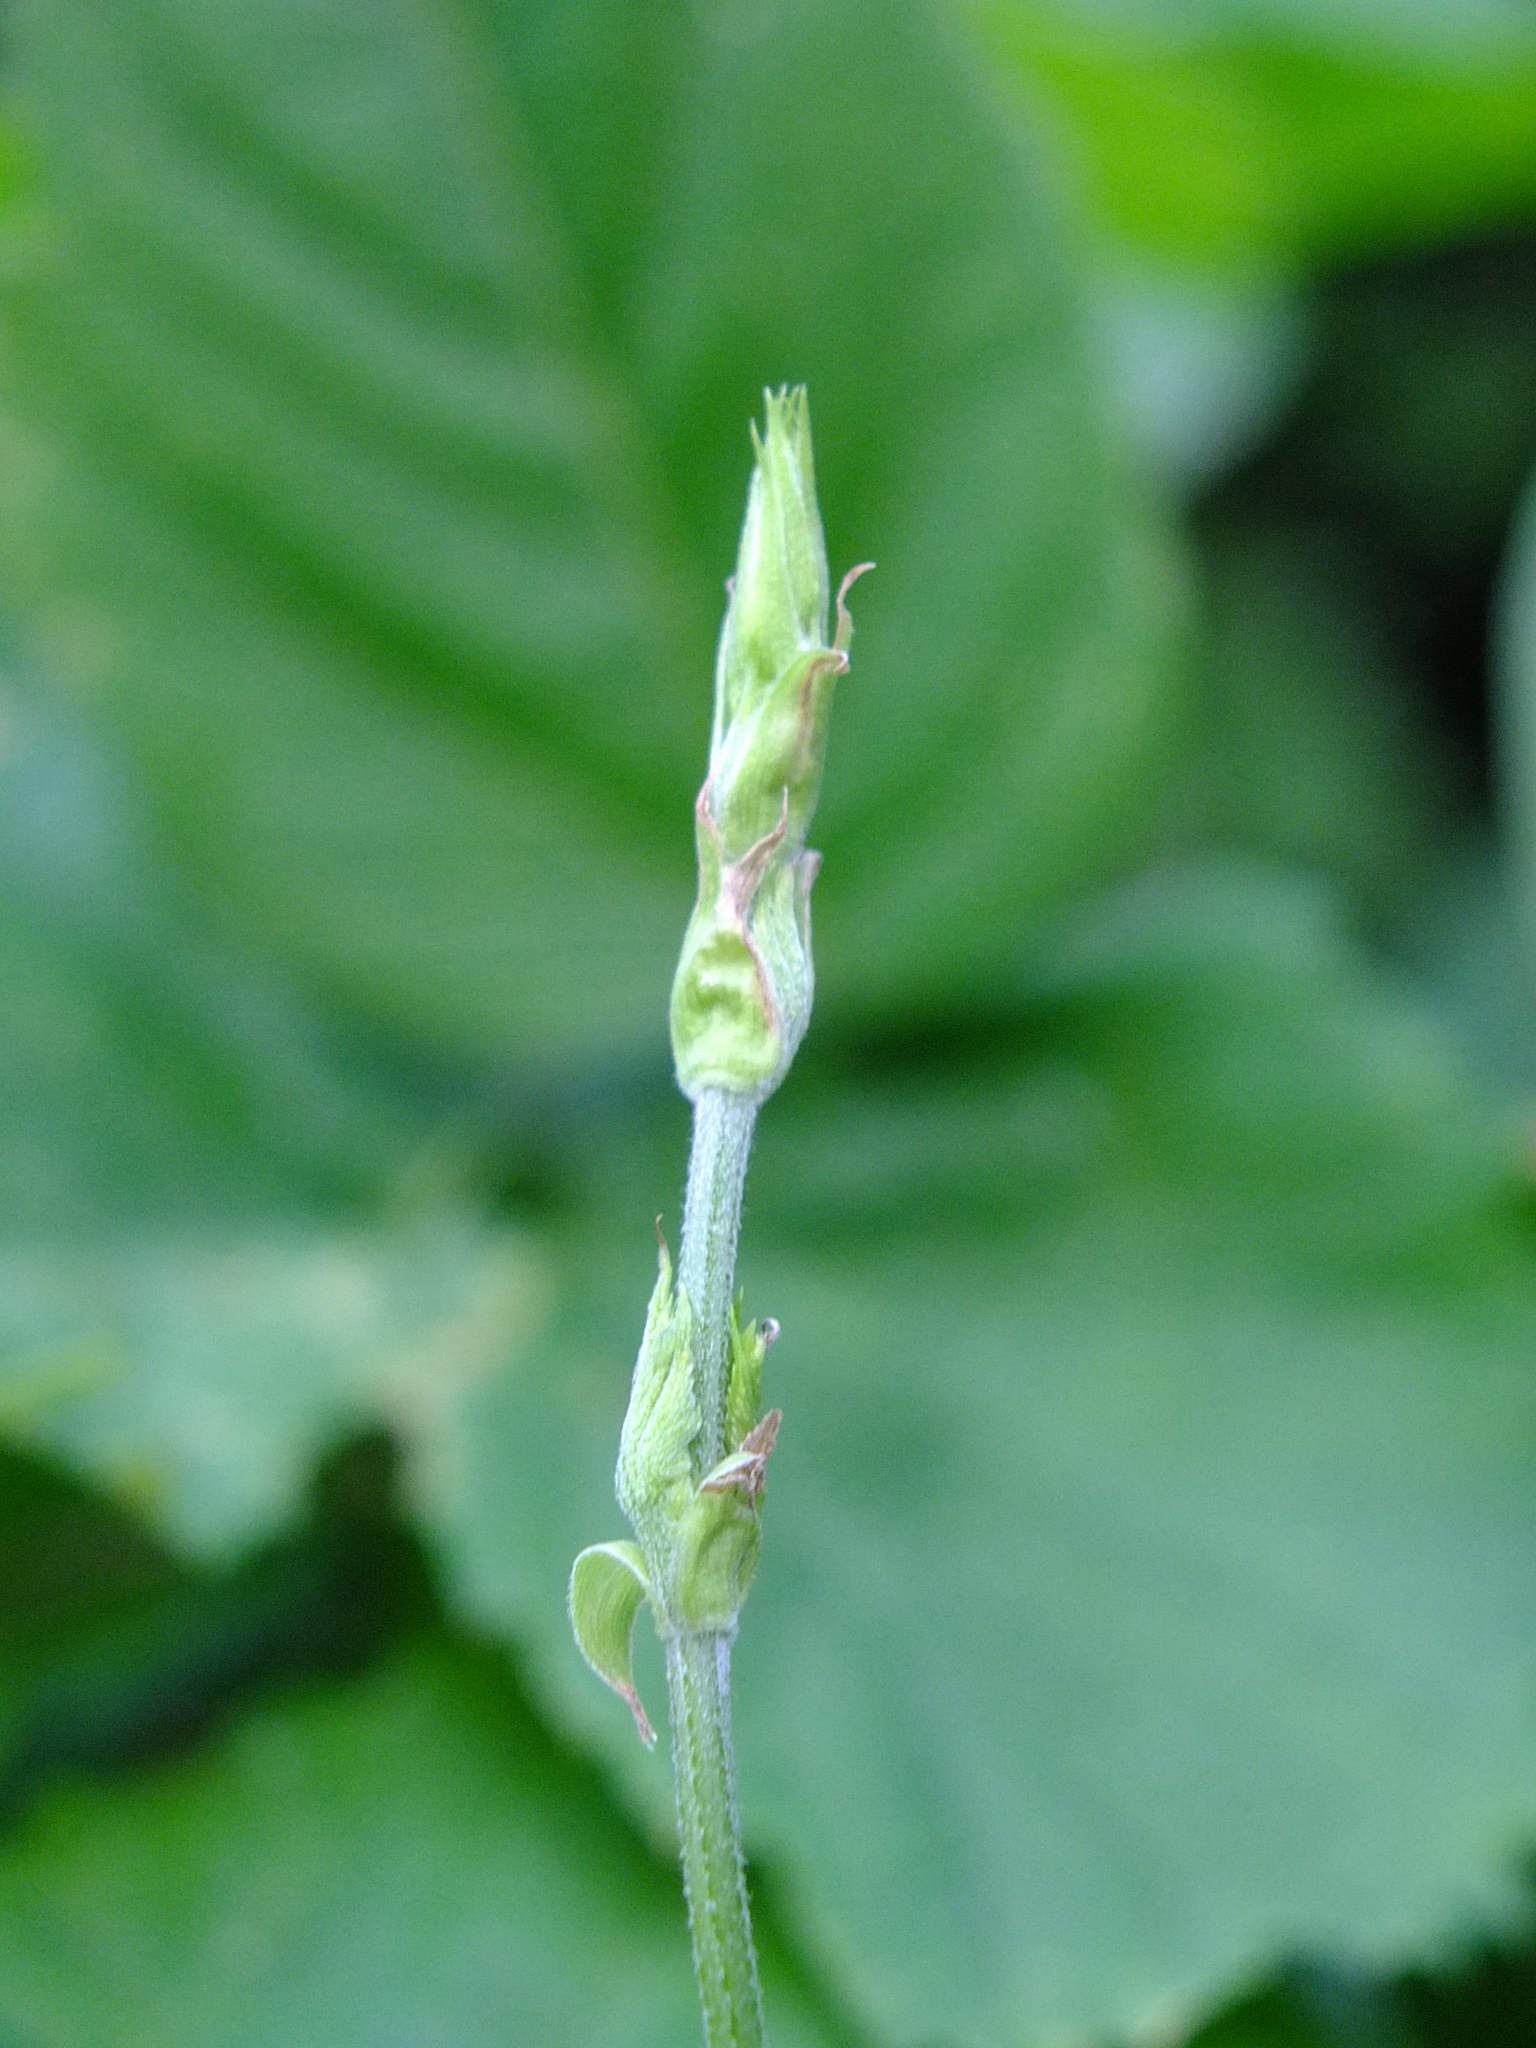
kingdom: Plantae
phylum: Tracheophyta
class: Magnoliopsida
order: Rosales
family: Cannabaceae
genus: Humulus
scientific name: Humulus lupulus
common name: Hop
